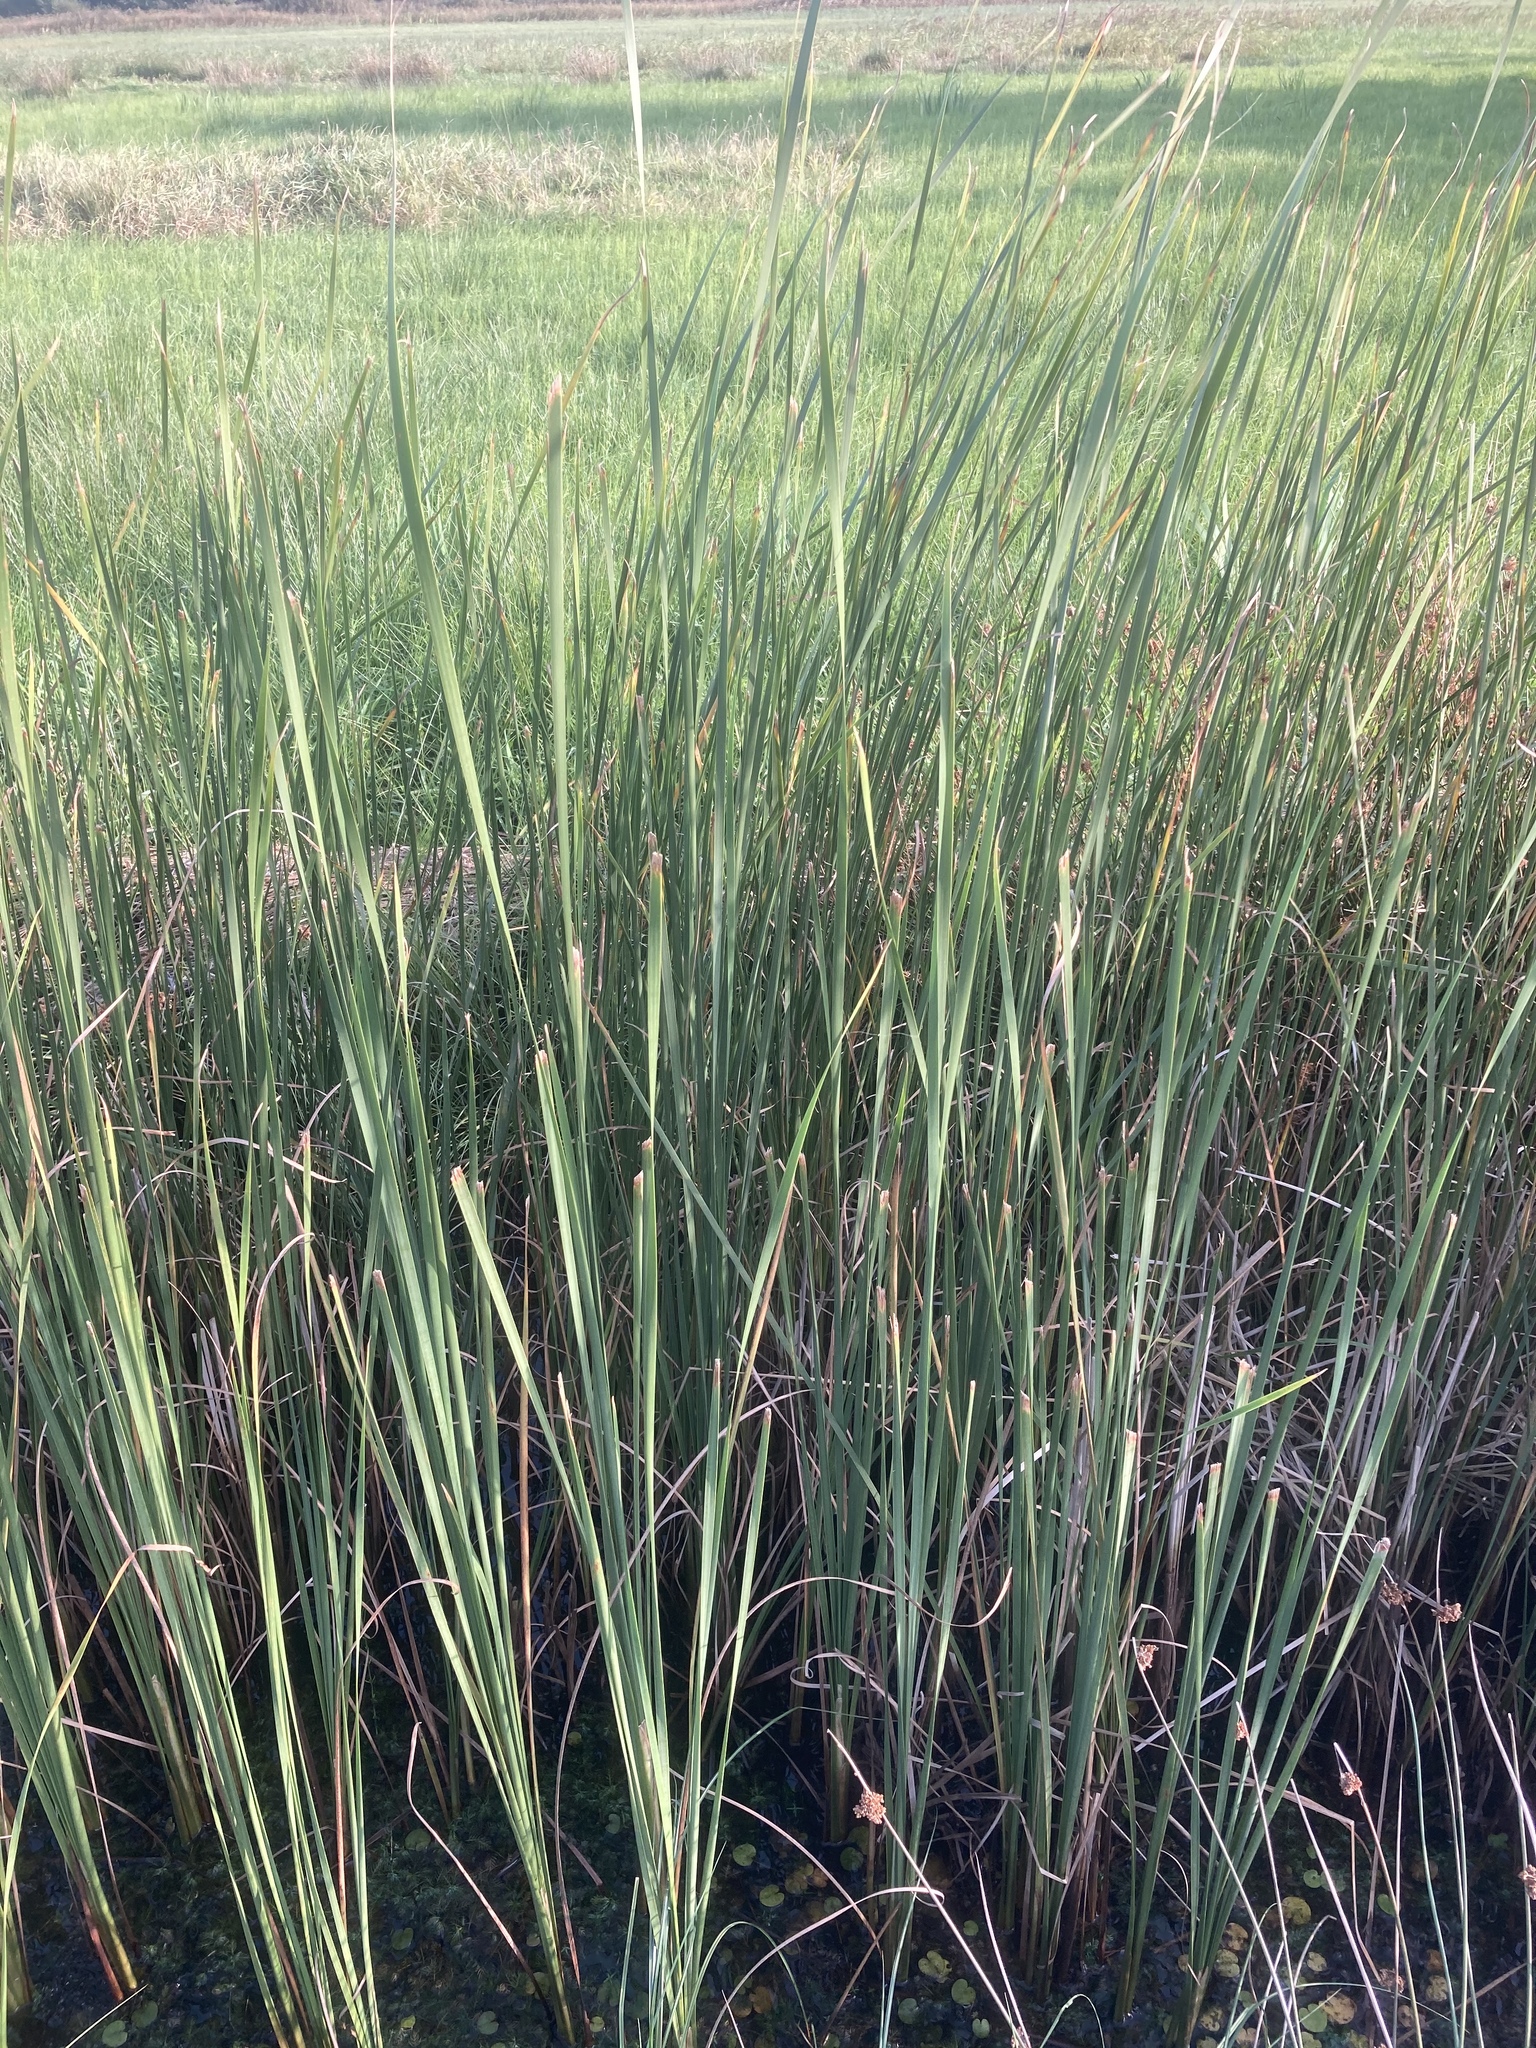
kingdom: Plantae
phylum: Tracheophyta
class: Liliopsida
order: Poales
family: Typhaceae
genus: Typha
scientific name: Typha angustifolia
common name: Lesser bulrush
